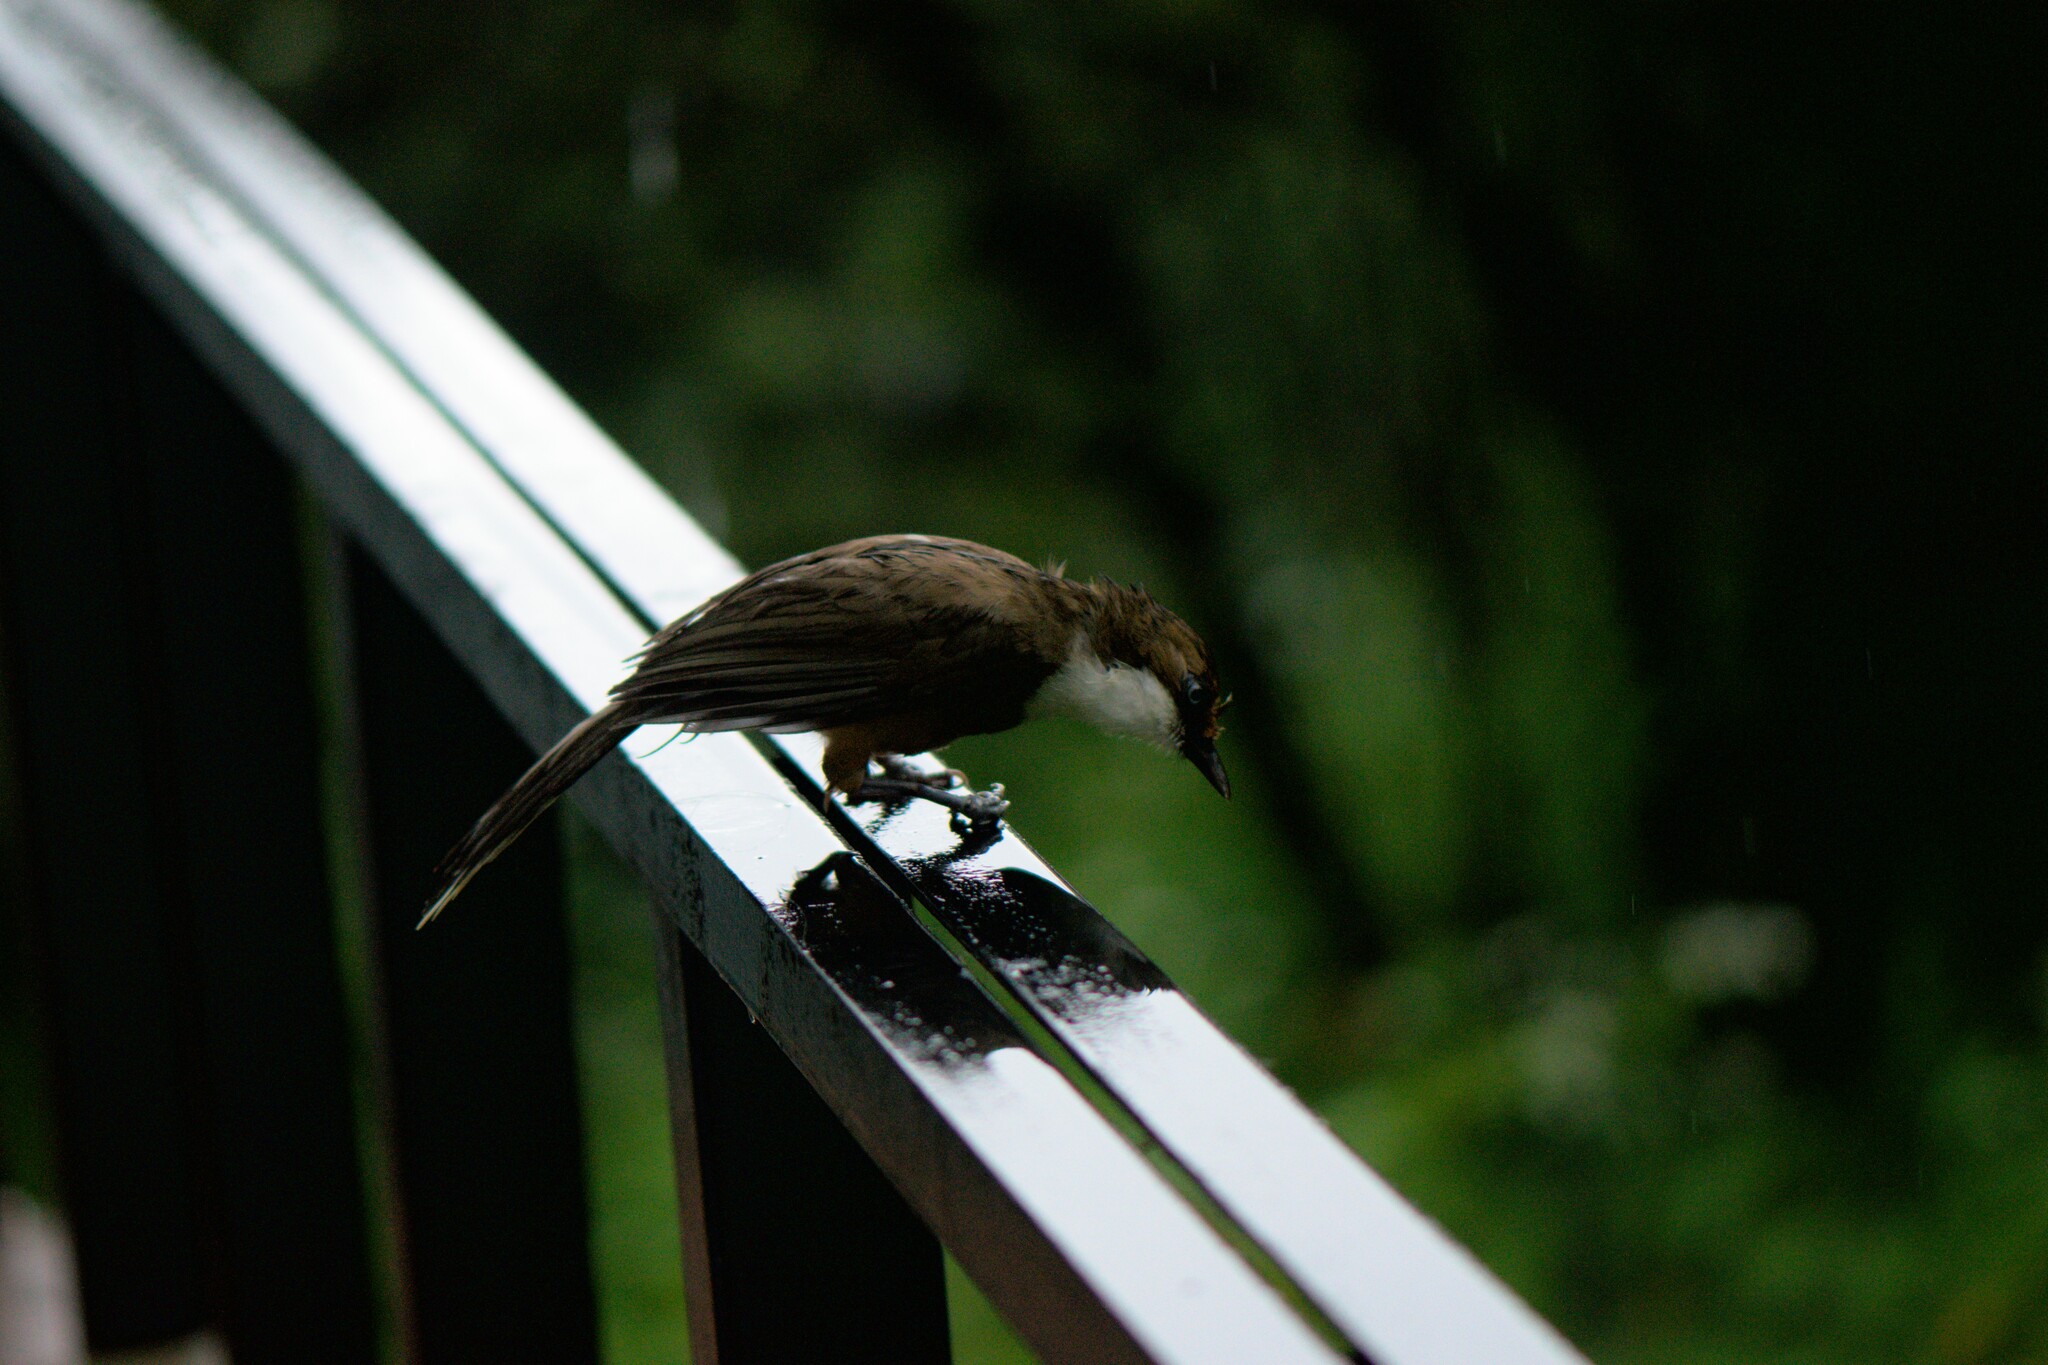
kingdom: Animalia
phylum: Chordata
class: Aves
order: Passeriformes
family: Leiothrichidae
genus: Garrulax
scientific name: Garrulax albogularis
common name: White-throated laughingthrush
